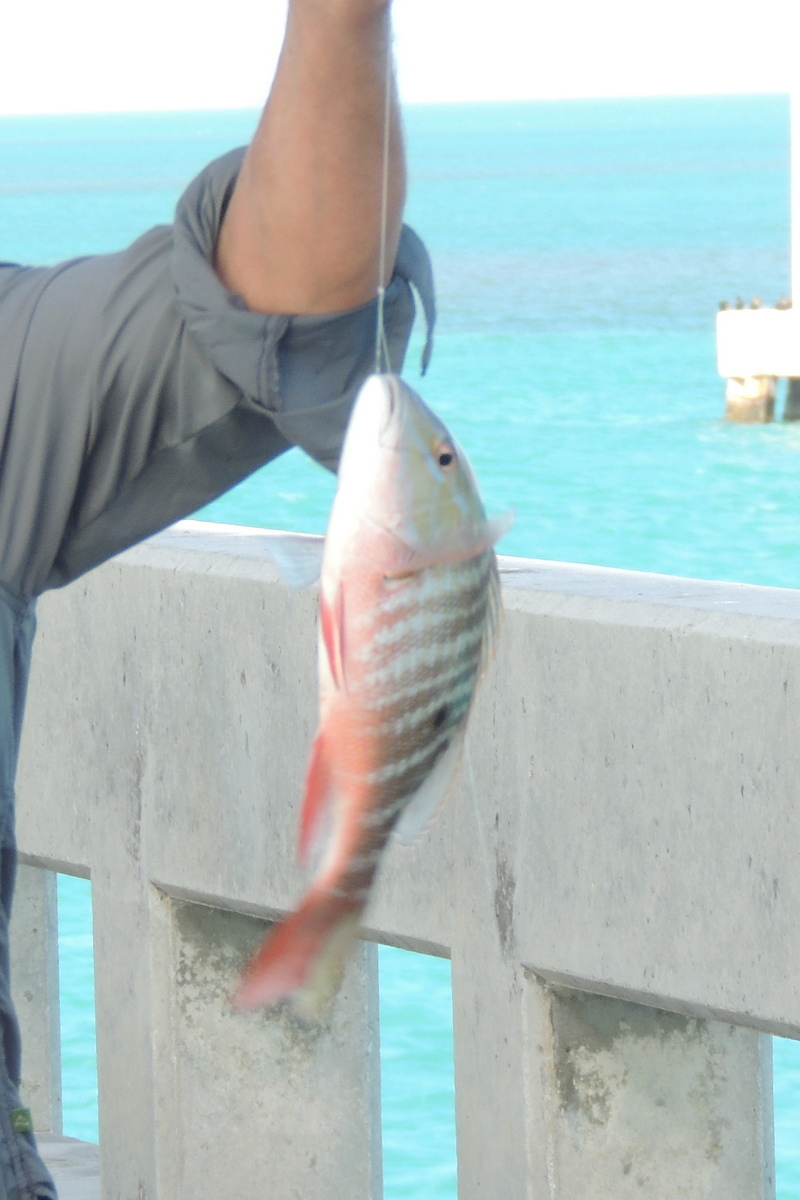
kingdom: Animalia
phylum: Chordata
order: Perciformes
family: Lutjanidae
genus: Lutjanus
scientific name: Lutjanus analis
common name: Mutton snapper
